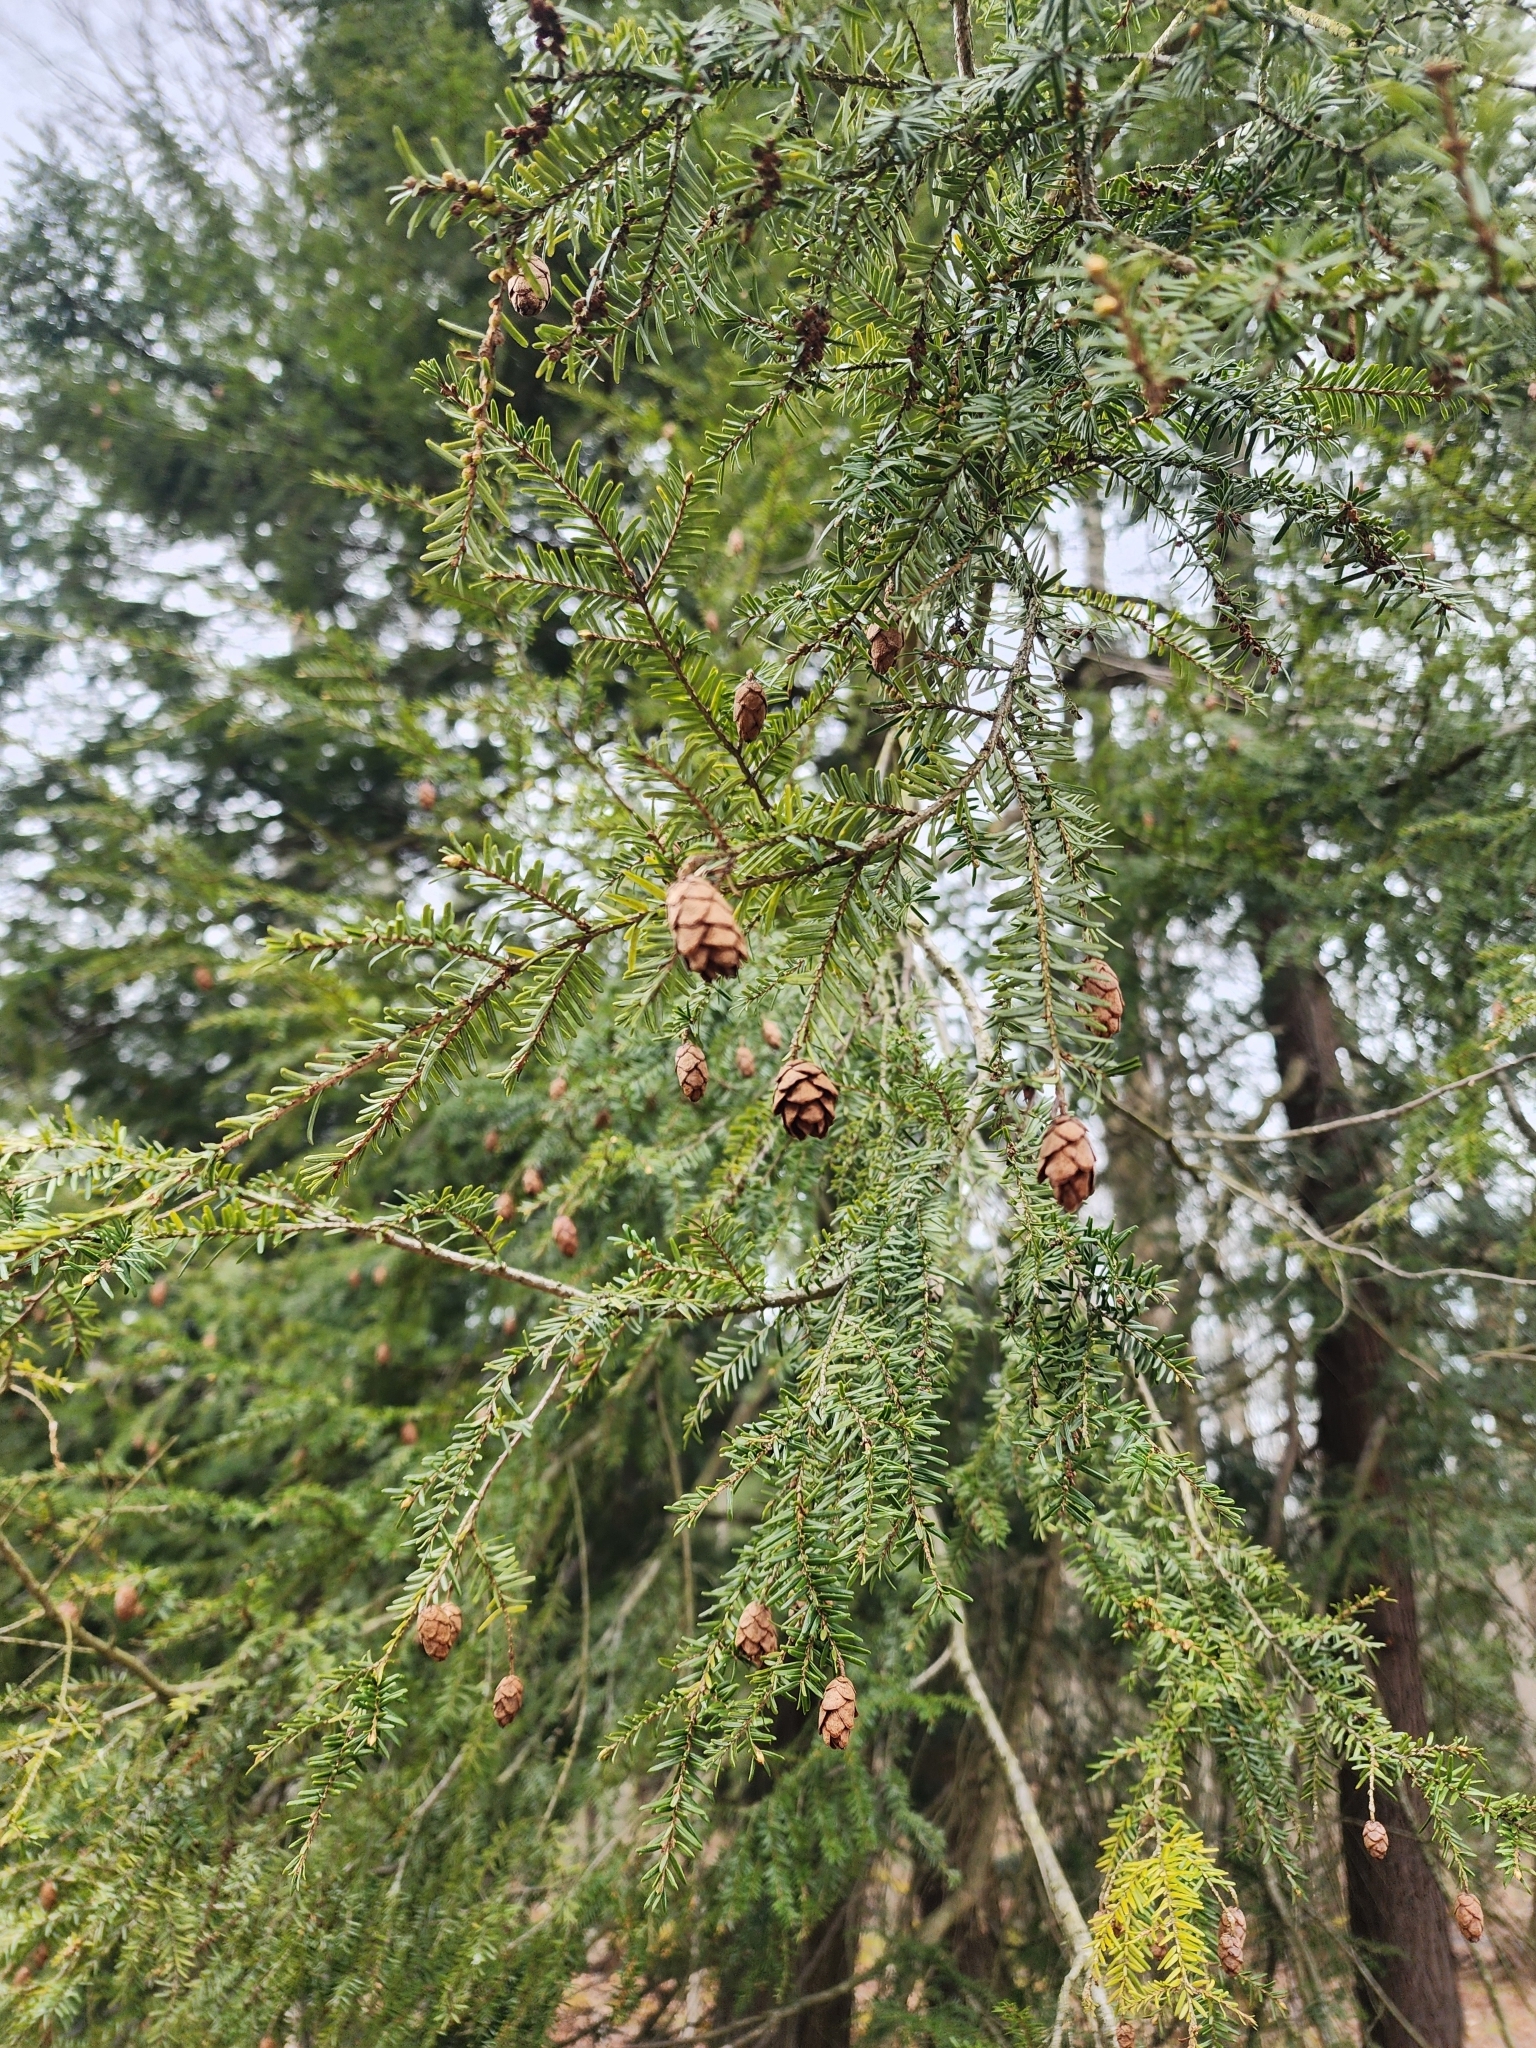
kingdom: Plantae
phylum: Tracheophyta
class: Pinopsida
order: Pinales
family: Pinaceae
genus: Tsuga
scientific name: Tsuga canadensis
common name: Eastern hemlock
